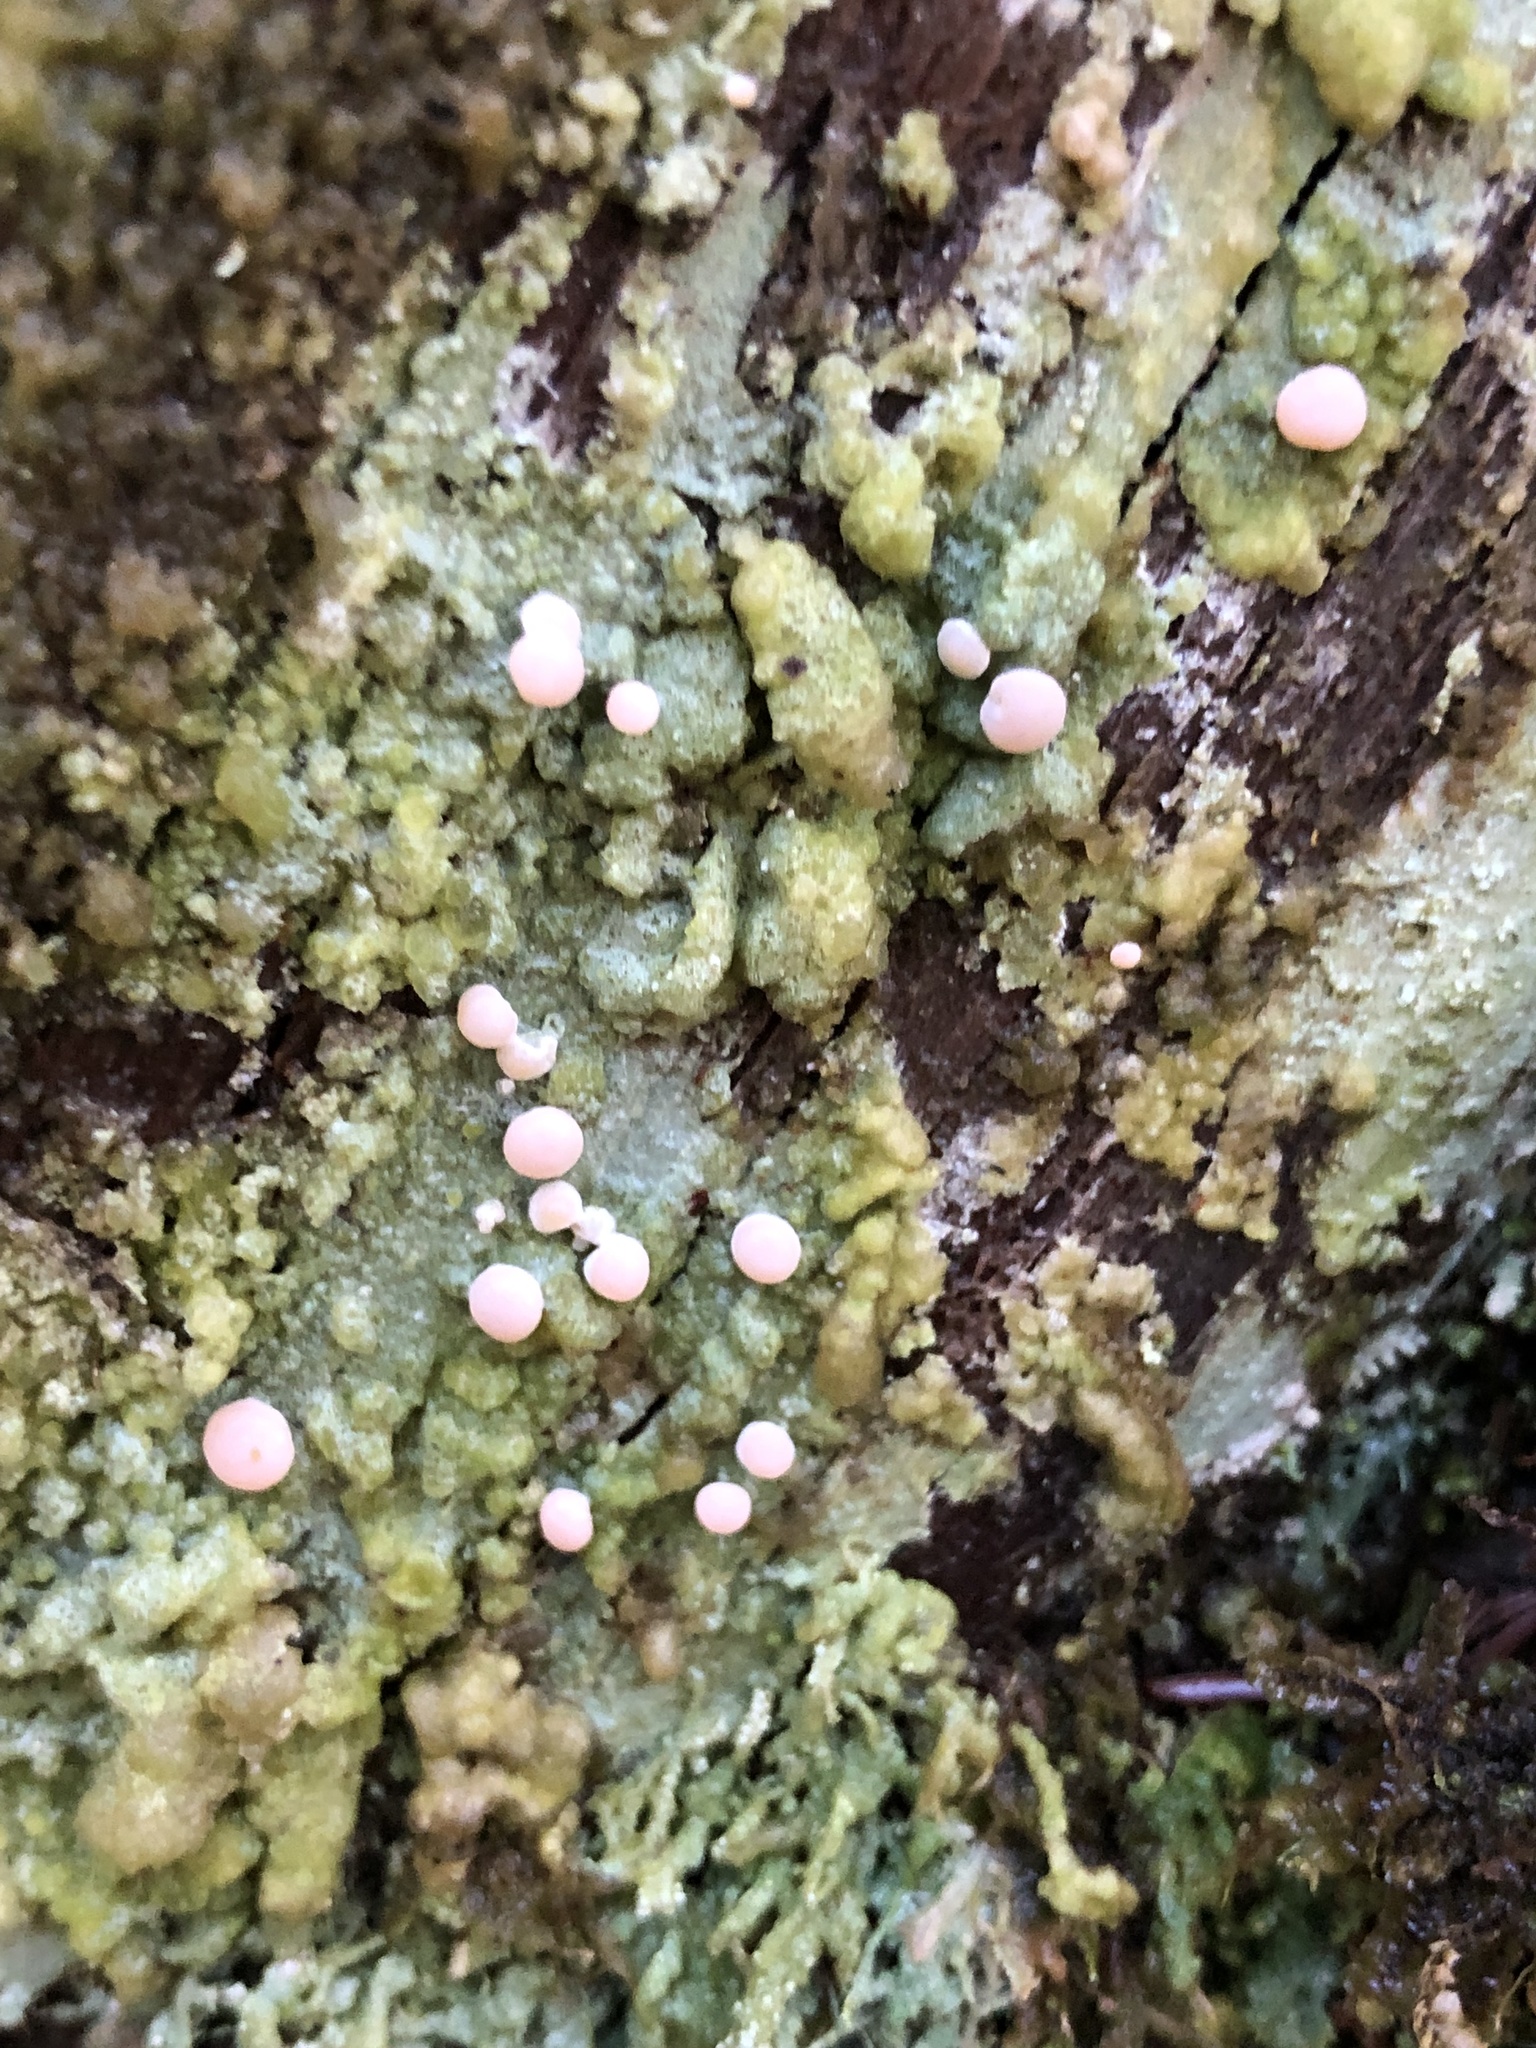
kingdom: Fungi
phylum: Ascomycota
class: Lecanoromycetes
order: Pertusariales
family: Icmadophilaceae
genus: Icmadophila
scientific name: Icmadophila ericetorum
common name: Candy lichen
